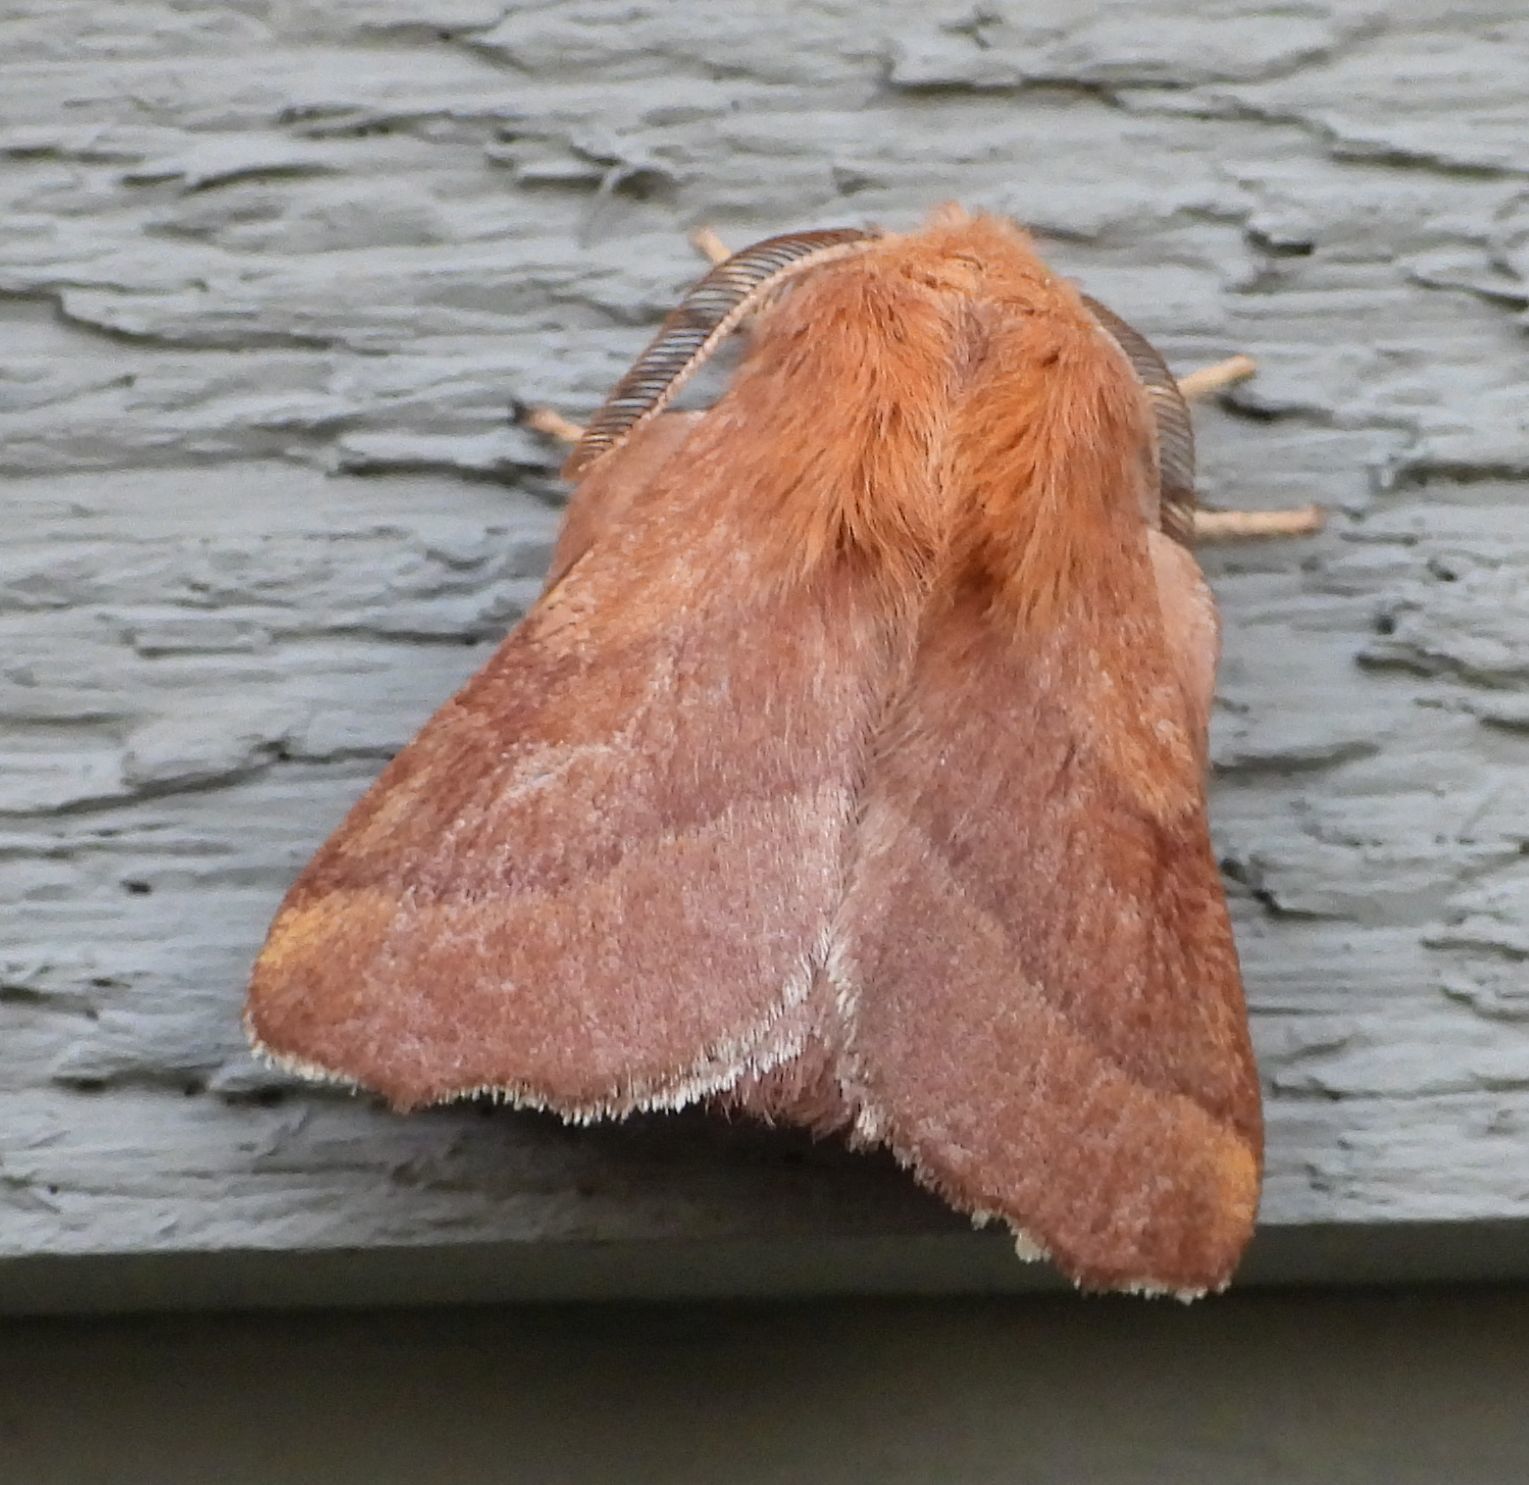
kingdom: Animalia
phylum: Arthropoda
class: Insecta
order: Lepidoptera
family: Lasiocampidae
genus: Malacosoma
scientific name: Malacosoma disstria
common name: Forest tent caterpillar
